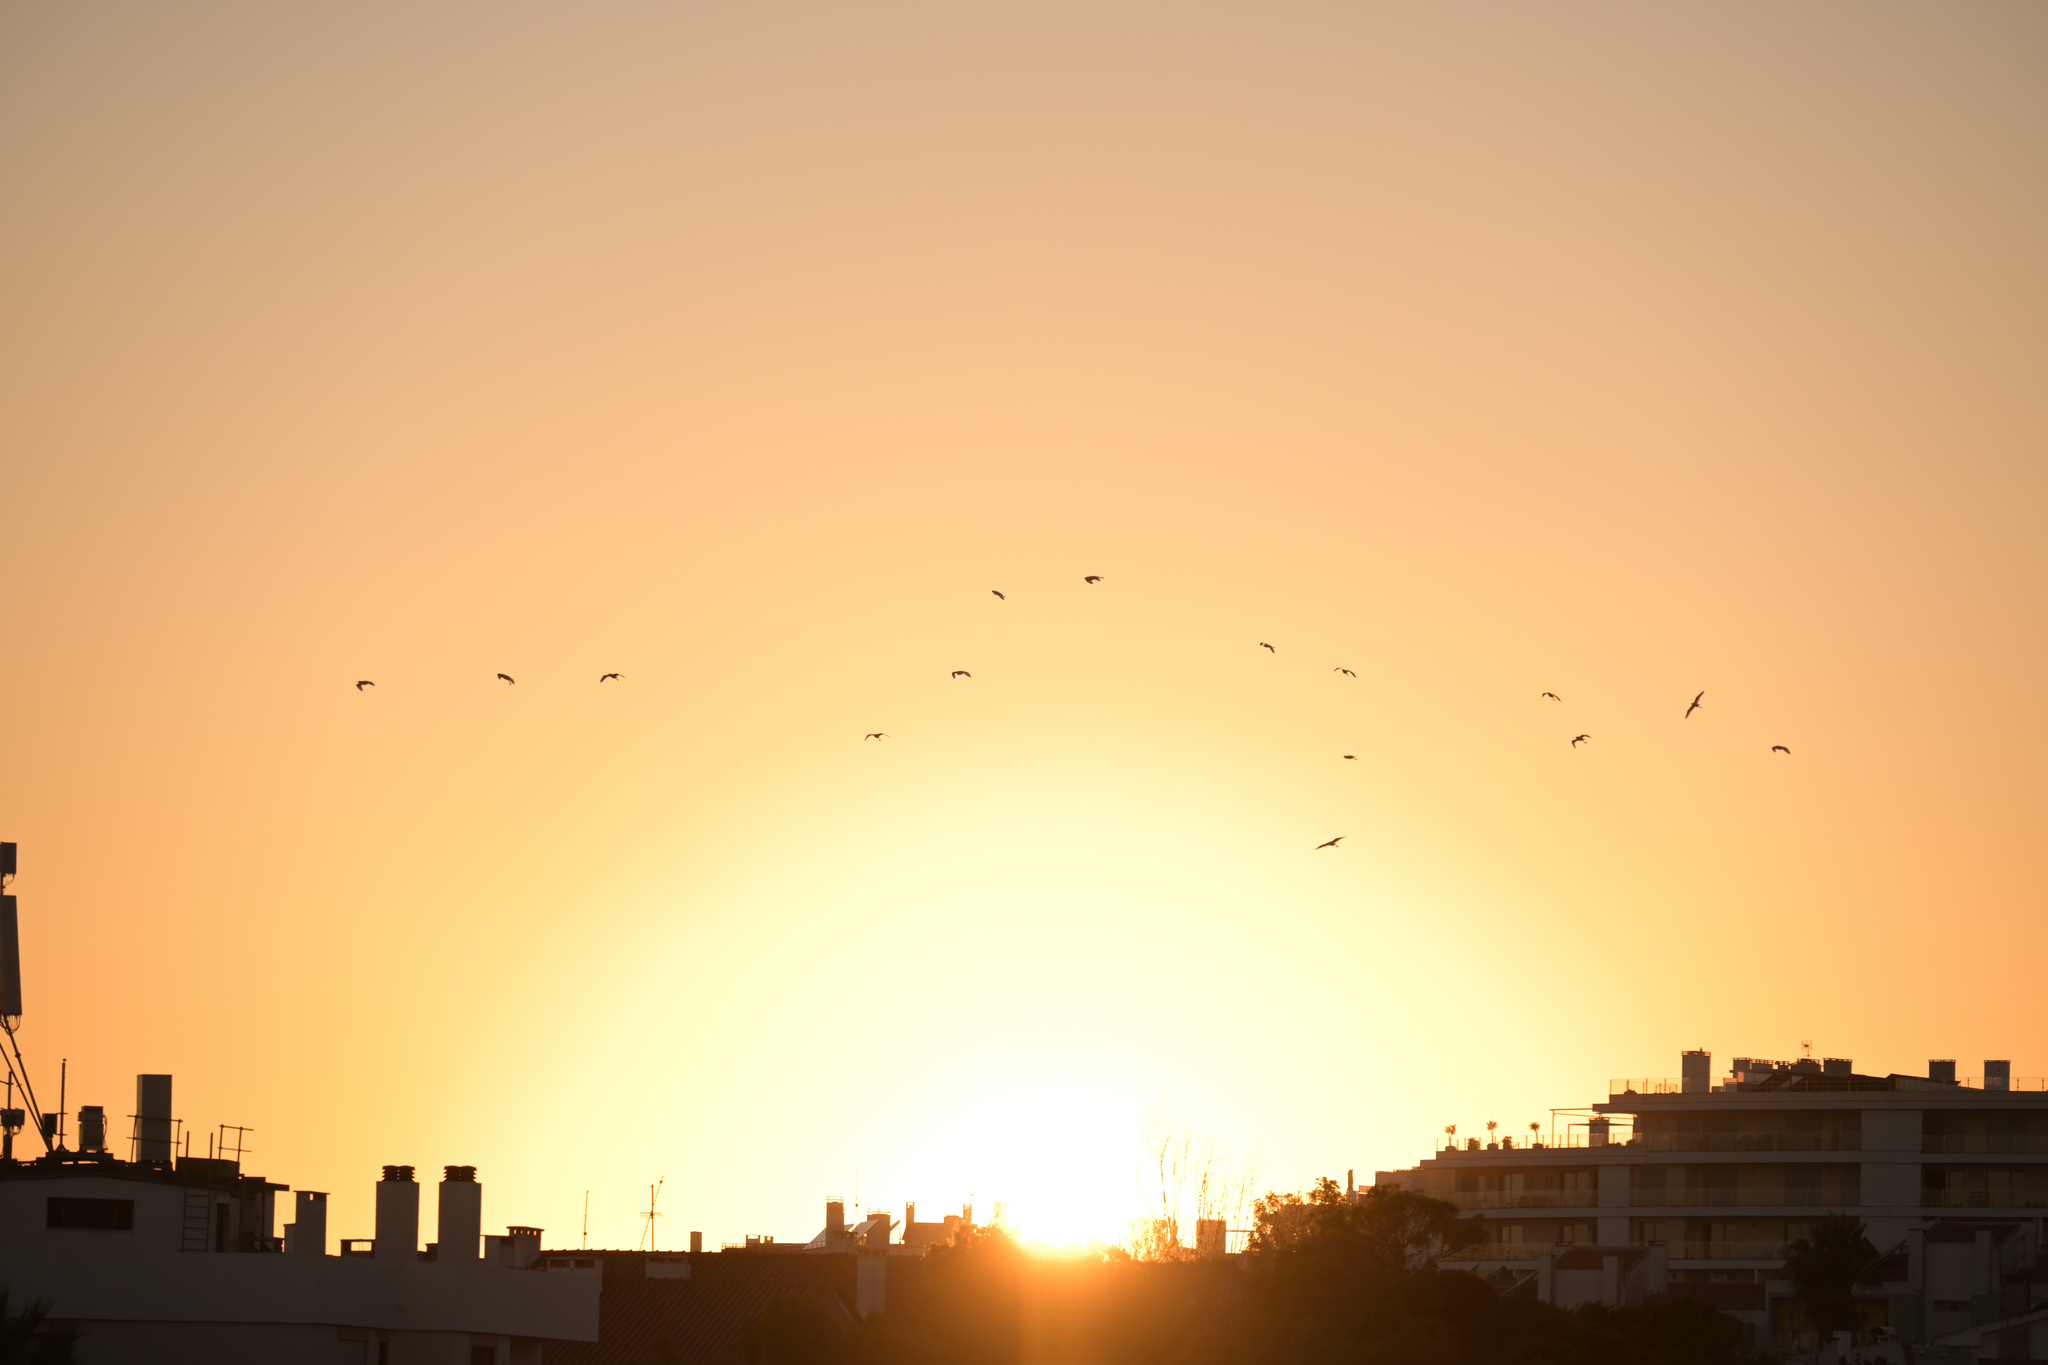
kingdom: Animalia
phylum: Chordata
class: Aves
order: Pelecaniformes
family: Ardeidae
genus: Bubulcus
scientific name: Bubulcus ibis
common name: Cattle egret
